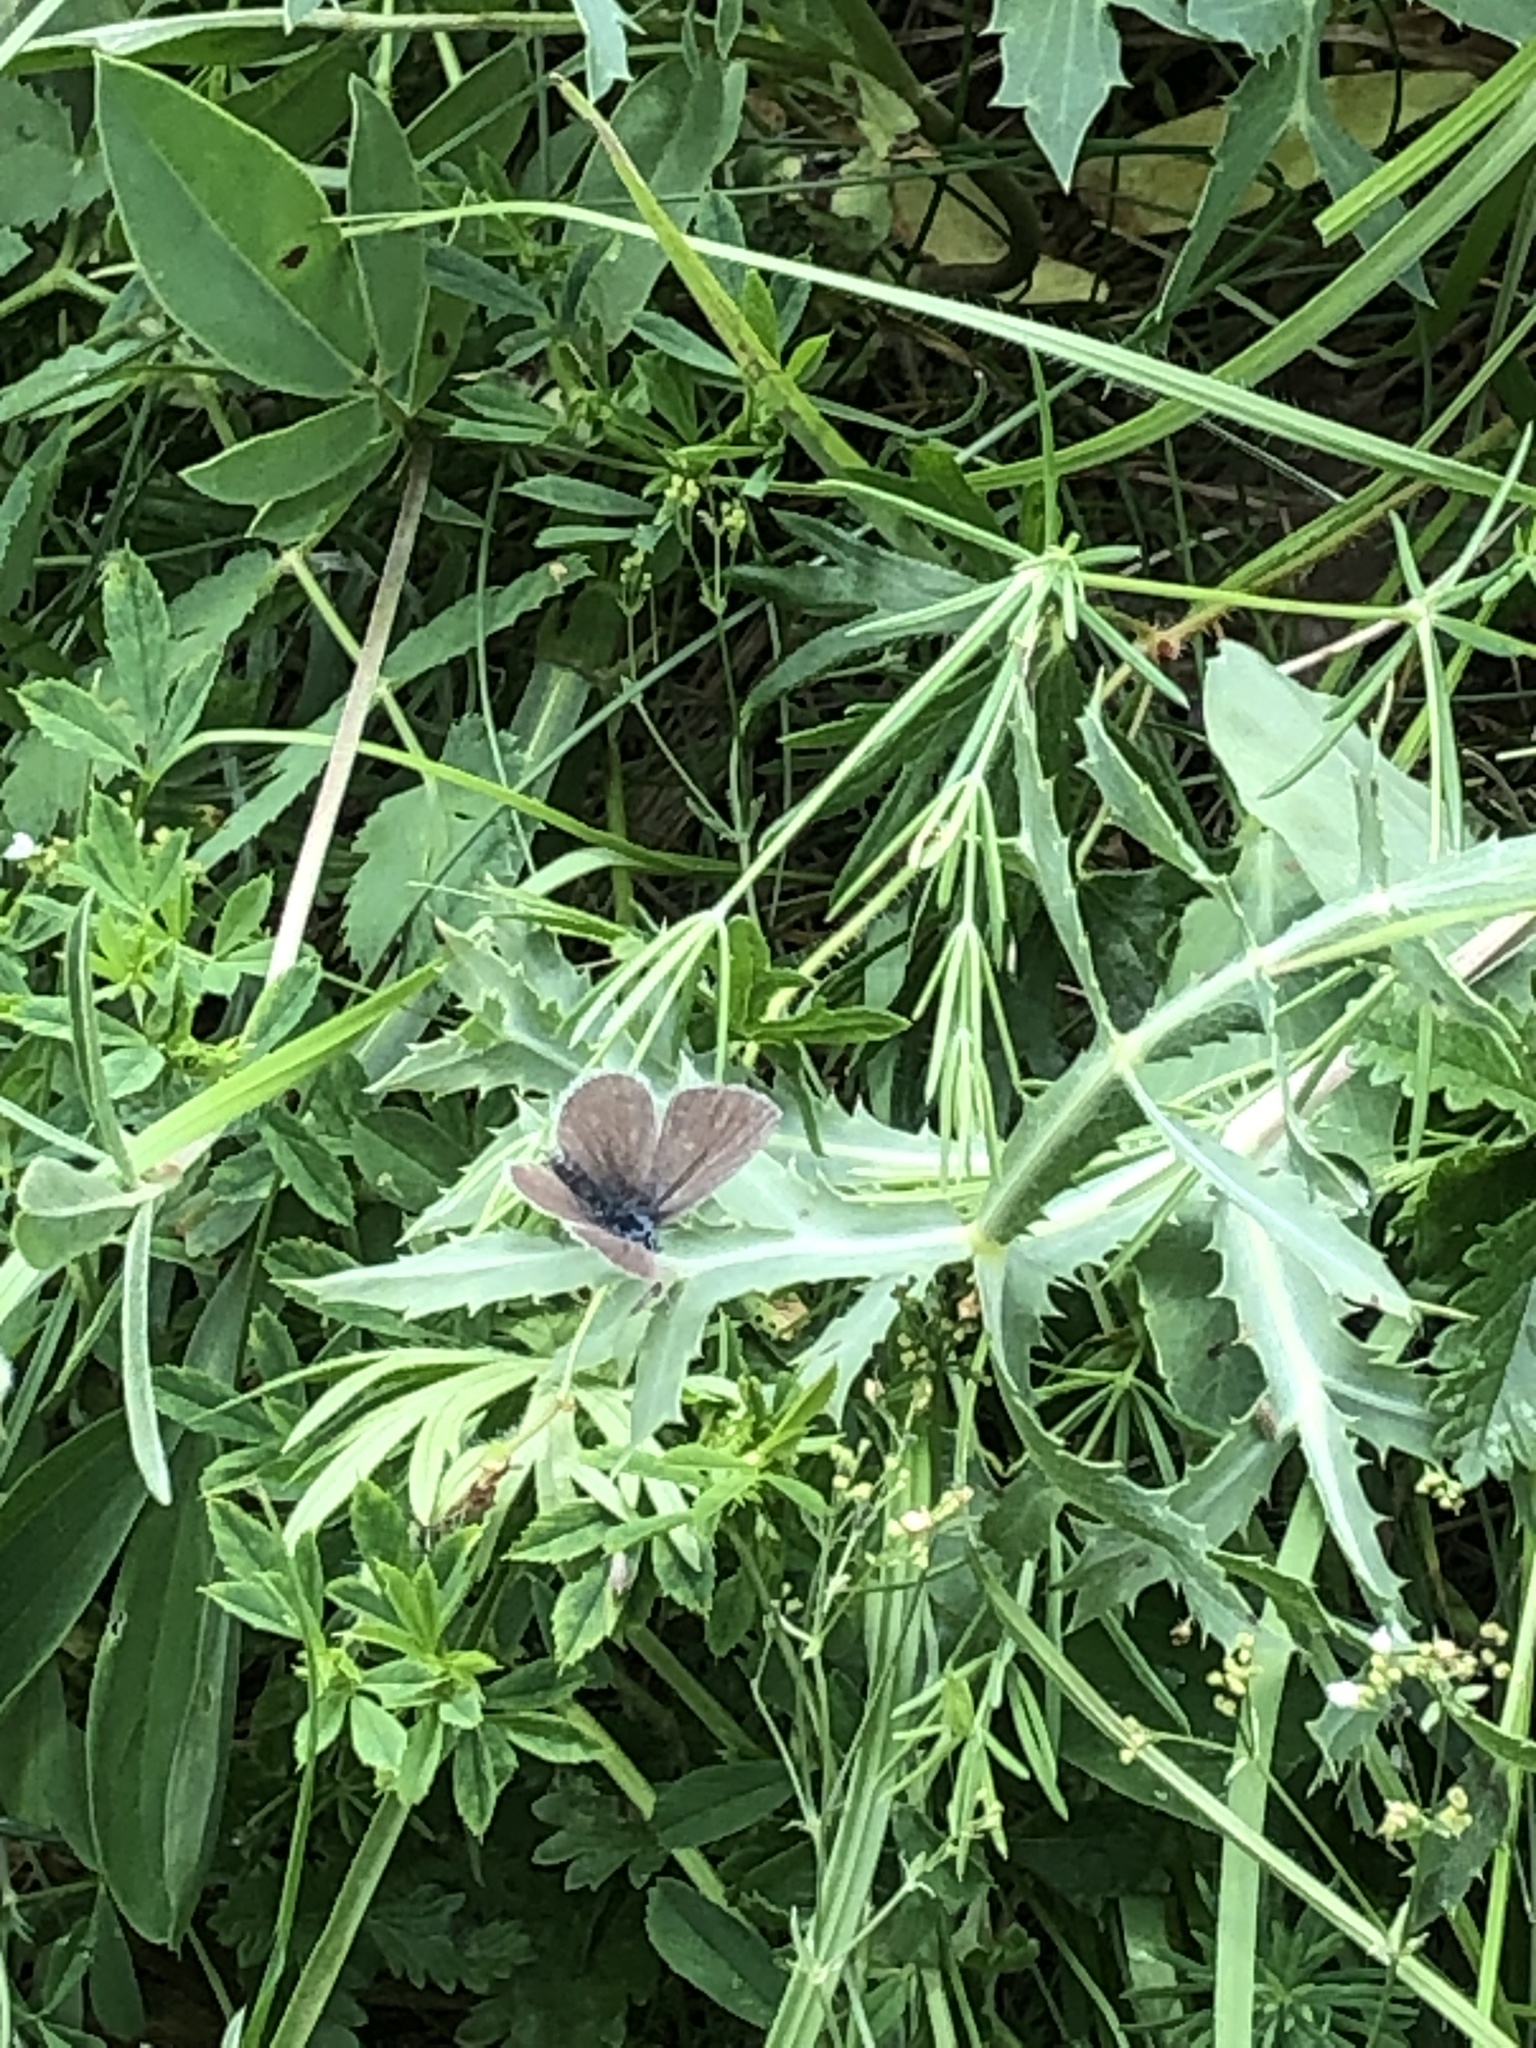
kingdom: Animalia
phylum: Arthropoda
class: Insecta
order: Lepidoptera
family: Lycaenidae
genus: Cupido
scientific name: Cupido minimus
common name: Small blue
